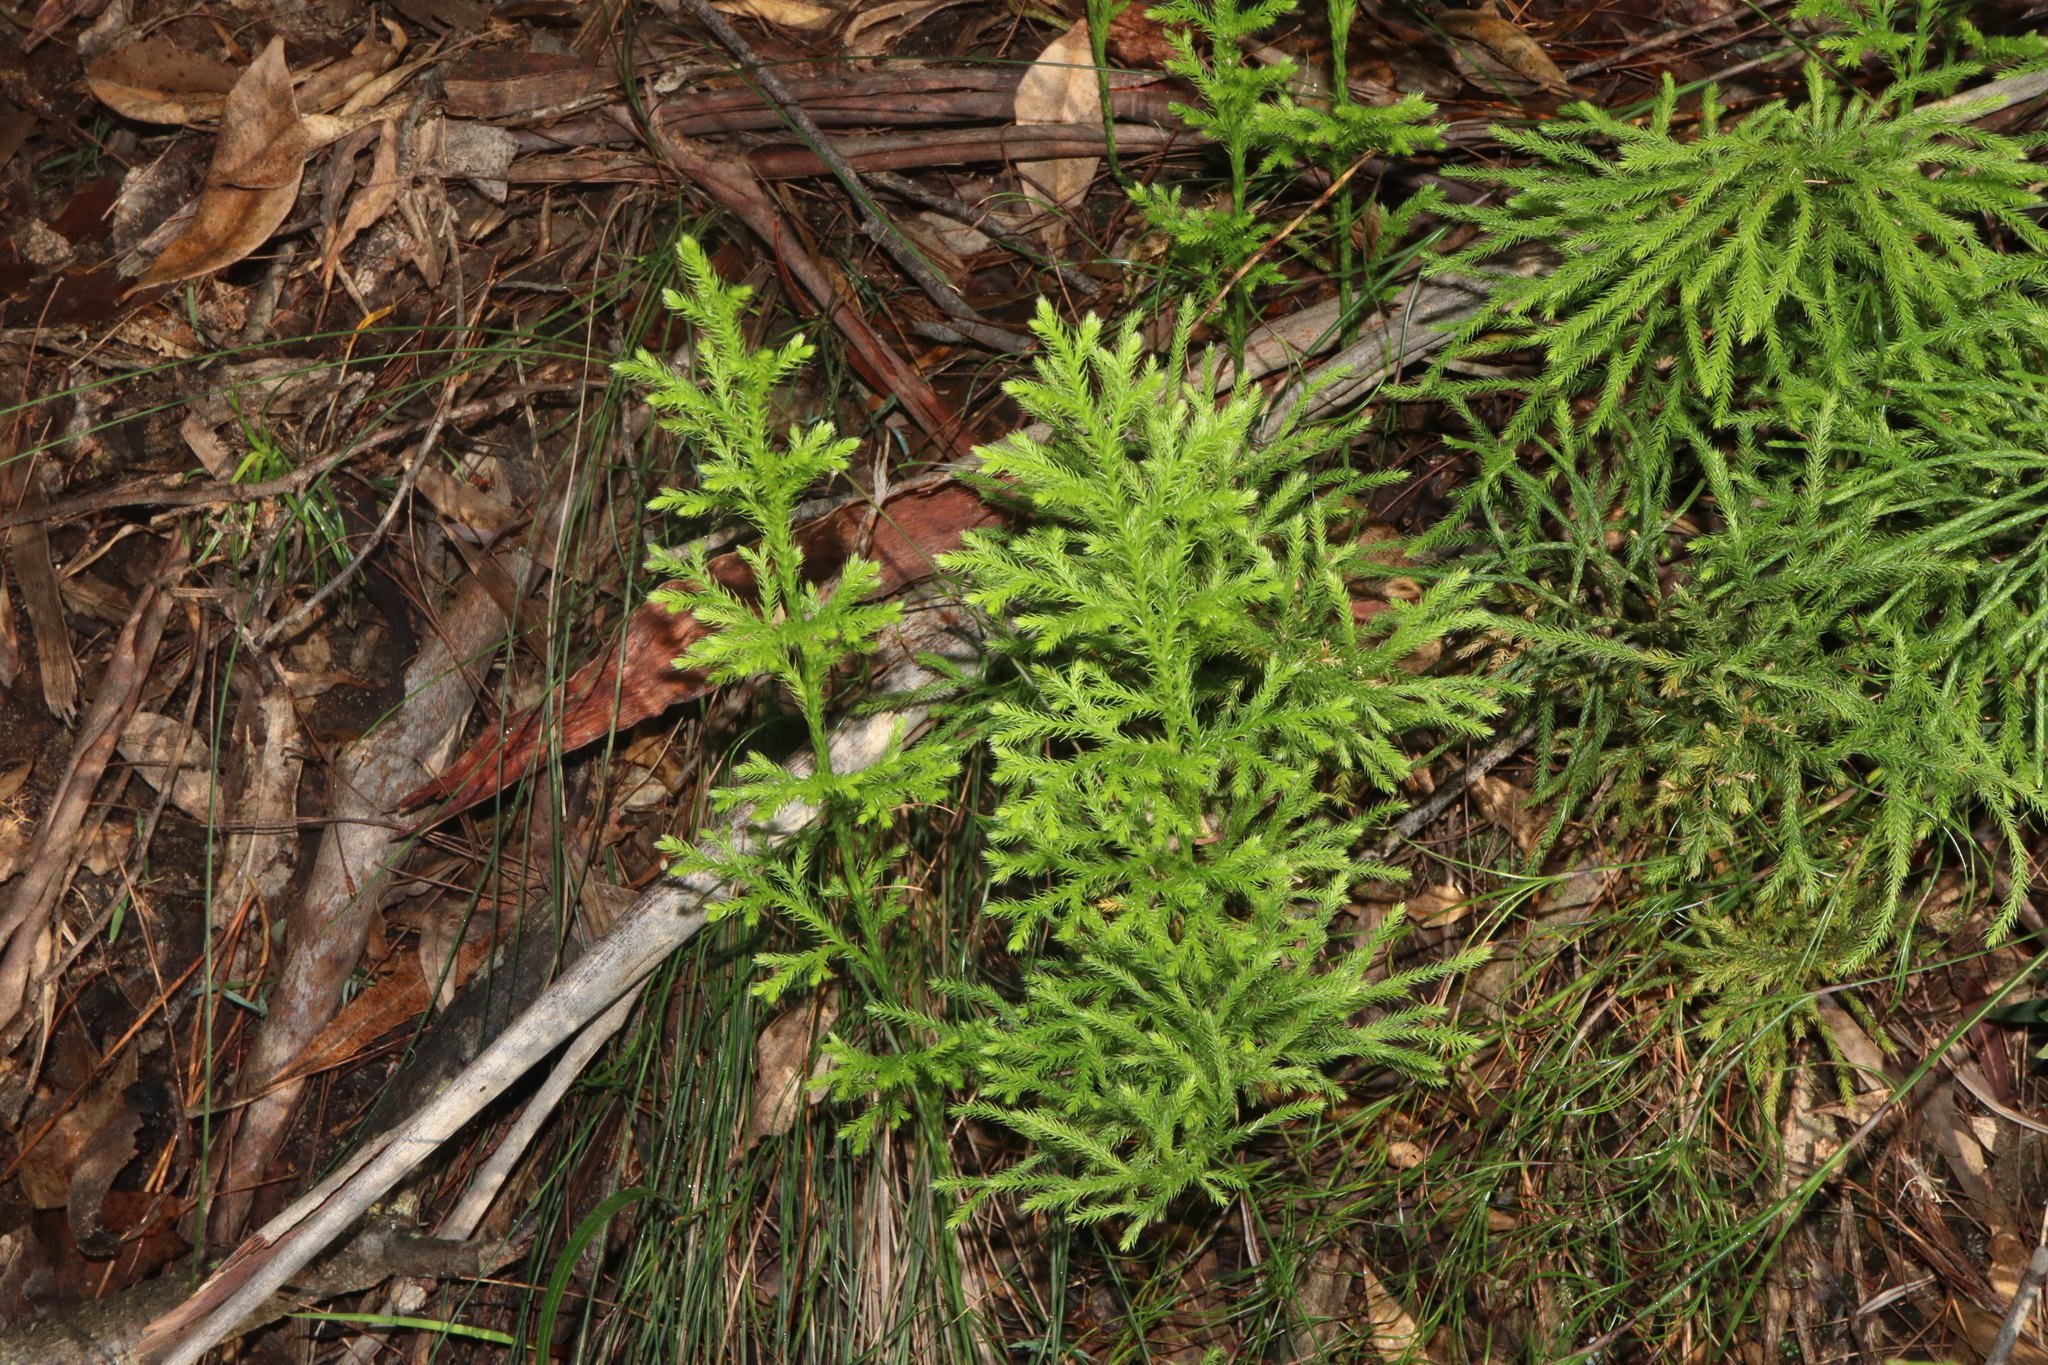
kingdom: Plantae
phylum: Tracheophyta
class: Lycopodiopsida
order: Lycopodiales
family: Lycopodiaceae
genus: Pseudolycopodium
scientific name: Pseudolycopodium densum
